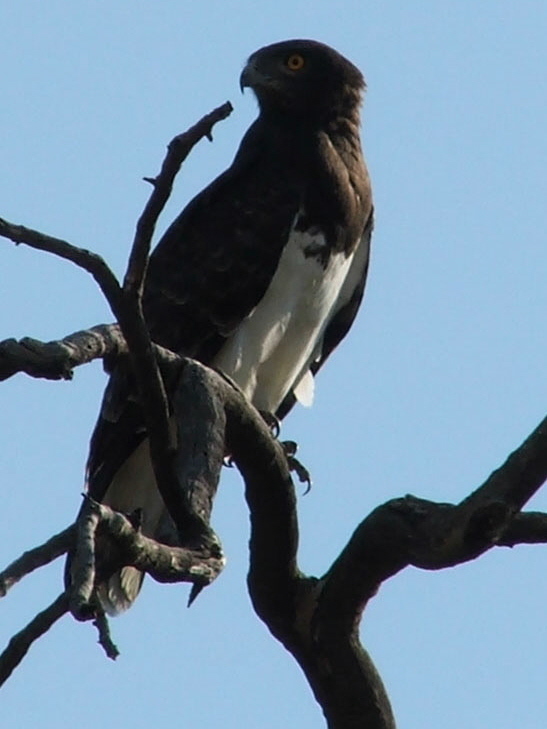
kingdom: Animalia
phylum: Chordata
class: Aves
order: Accipitriformes
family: Accipitridae
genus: Circaetus
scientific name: Circaetus pectoralis
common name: Black-chested snake eagle
